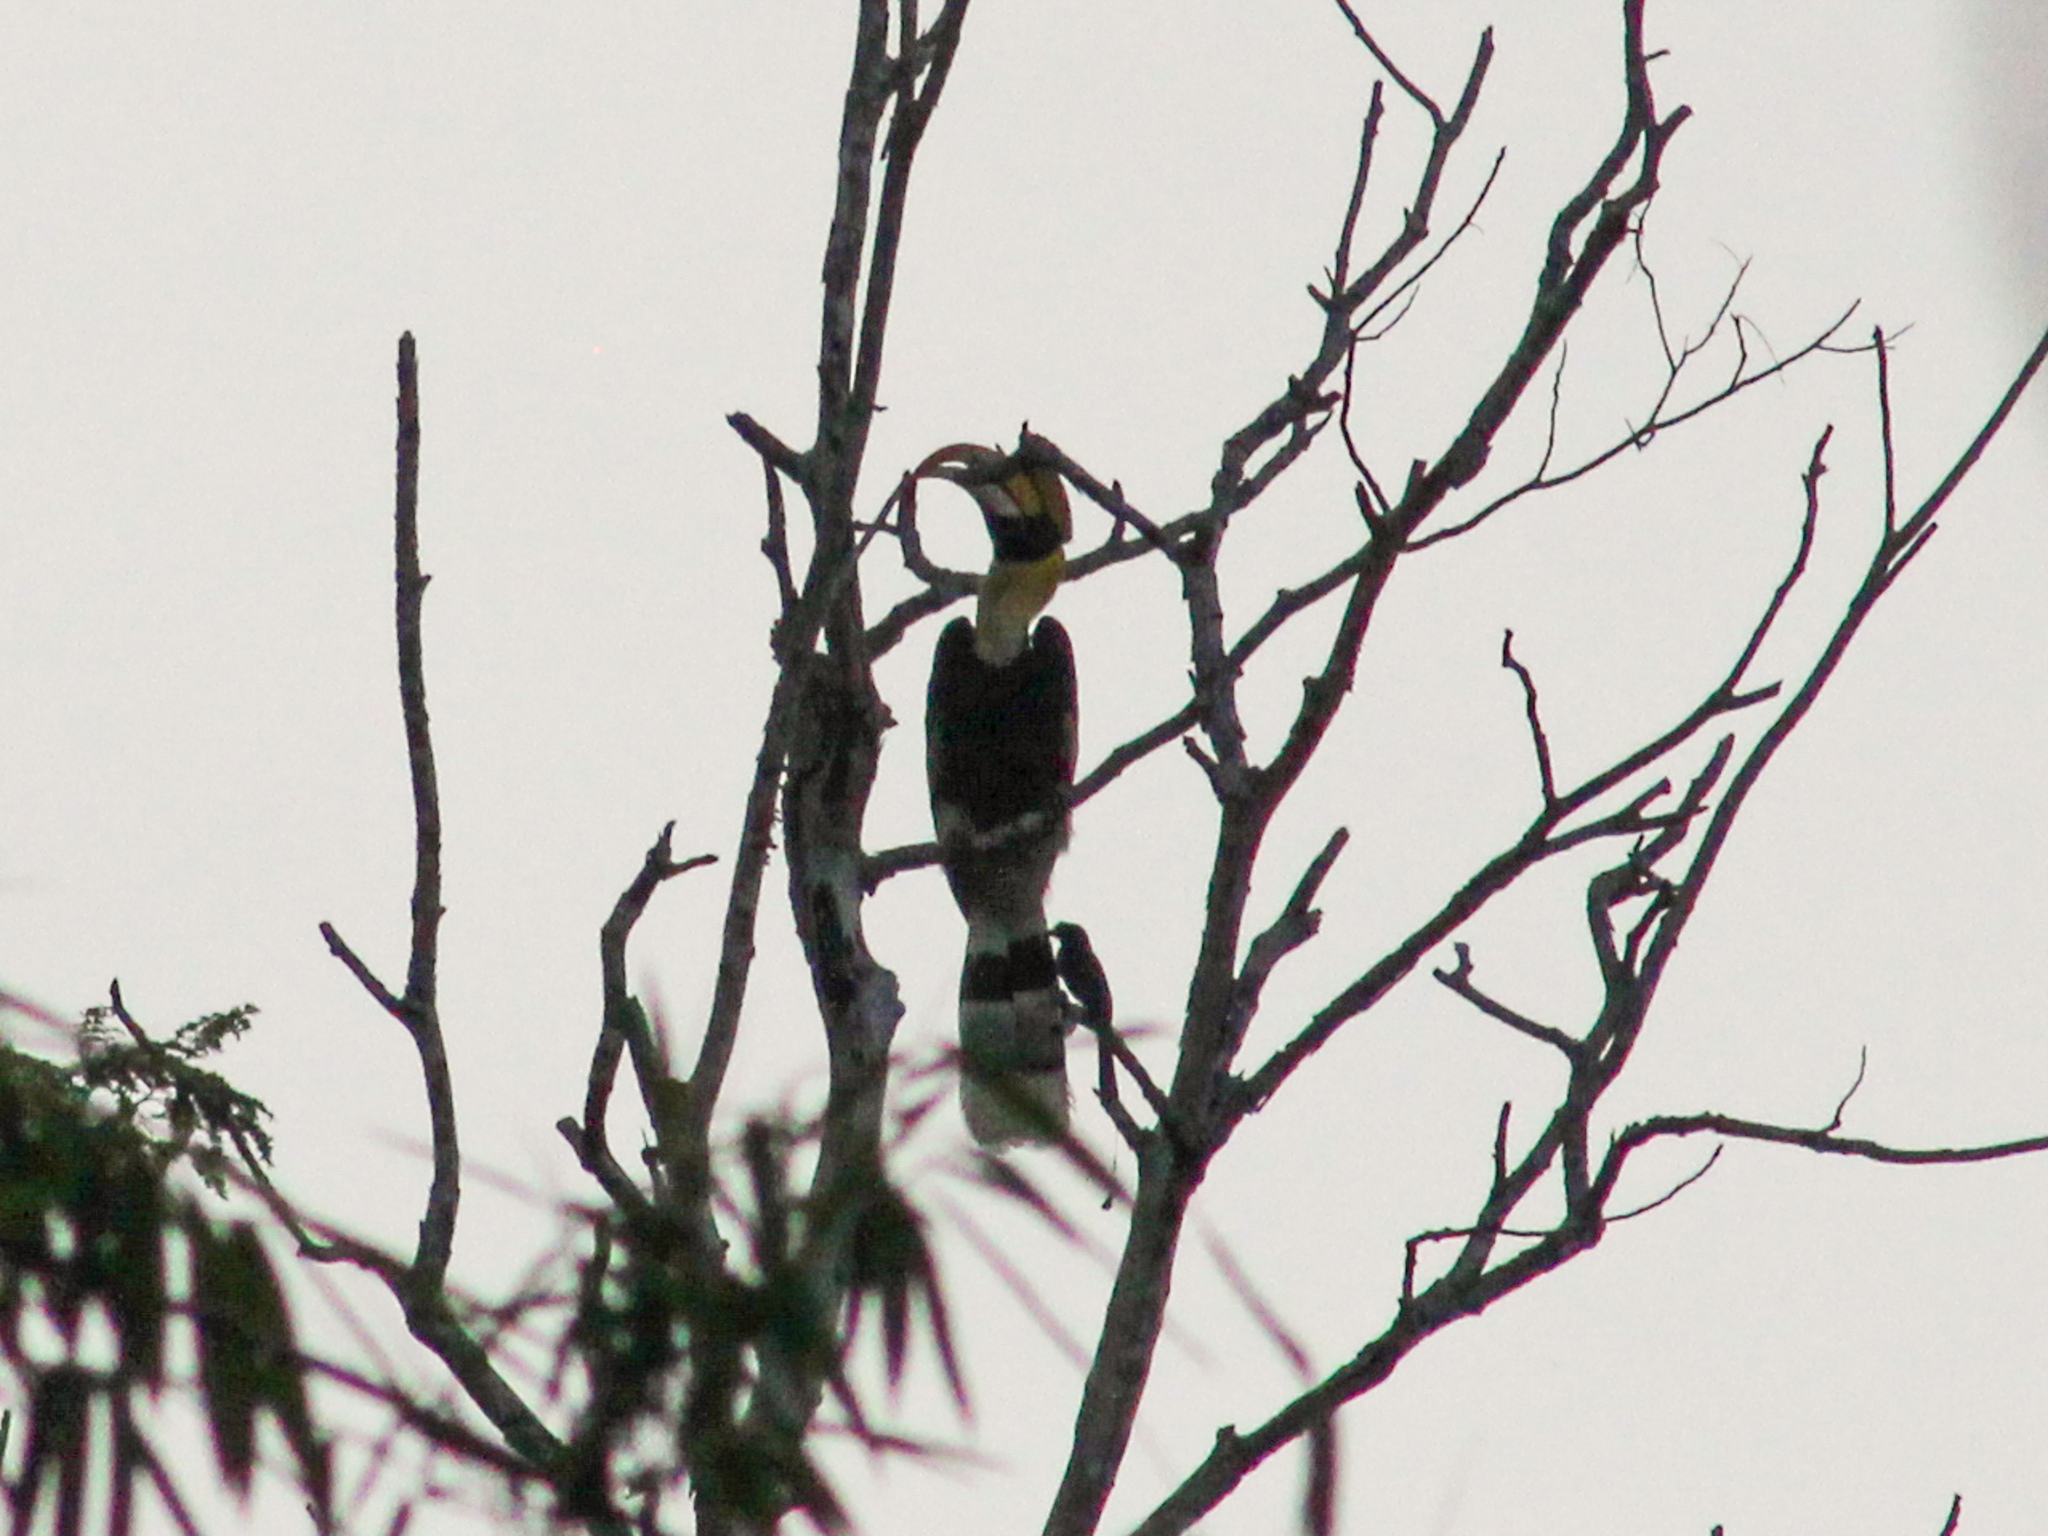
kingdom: Animalia
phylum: Chordata
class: Aves
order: Passeriformes
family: Dicruridae
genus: Dicrurus
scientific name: Dicrurus paradiseus
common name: Greater racket-tailed drongo
